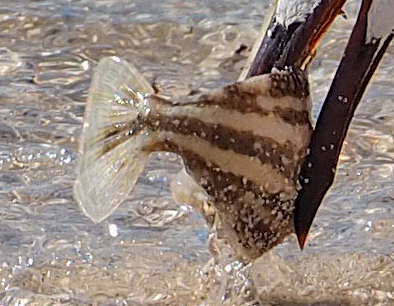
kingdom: Animalia
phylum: Chordata
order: Tetraodontiformes
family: Monacanthidae
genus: Cantherhines
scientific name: Cantherhines pullus
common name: Orangespotted filefish
